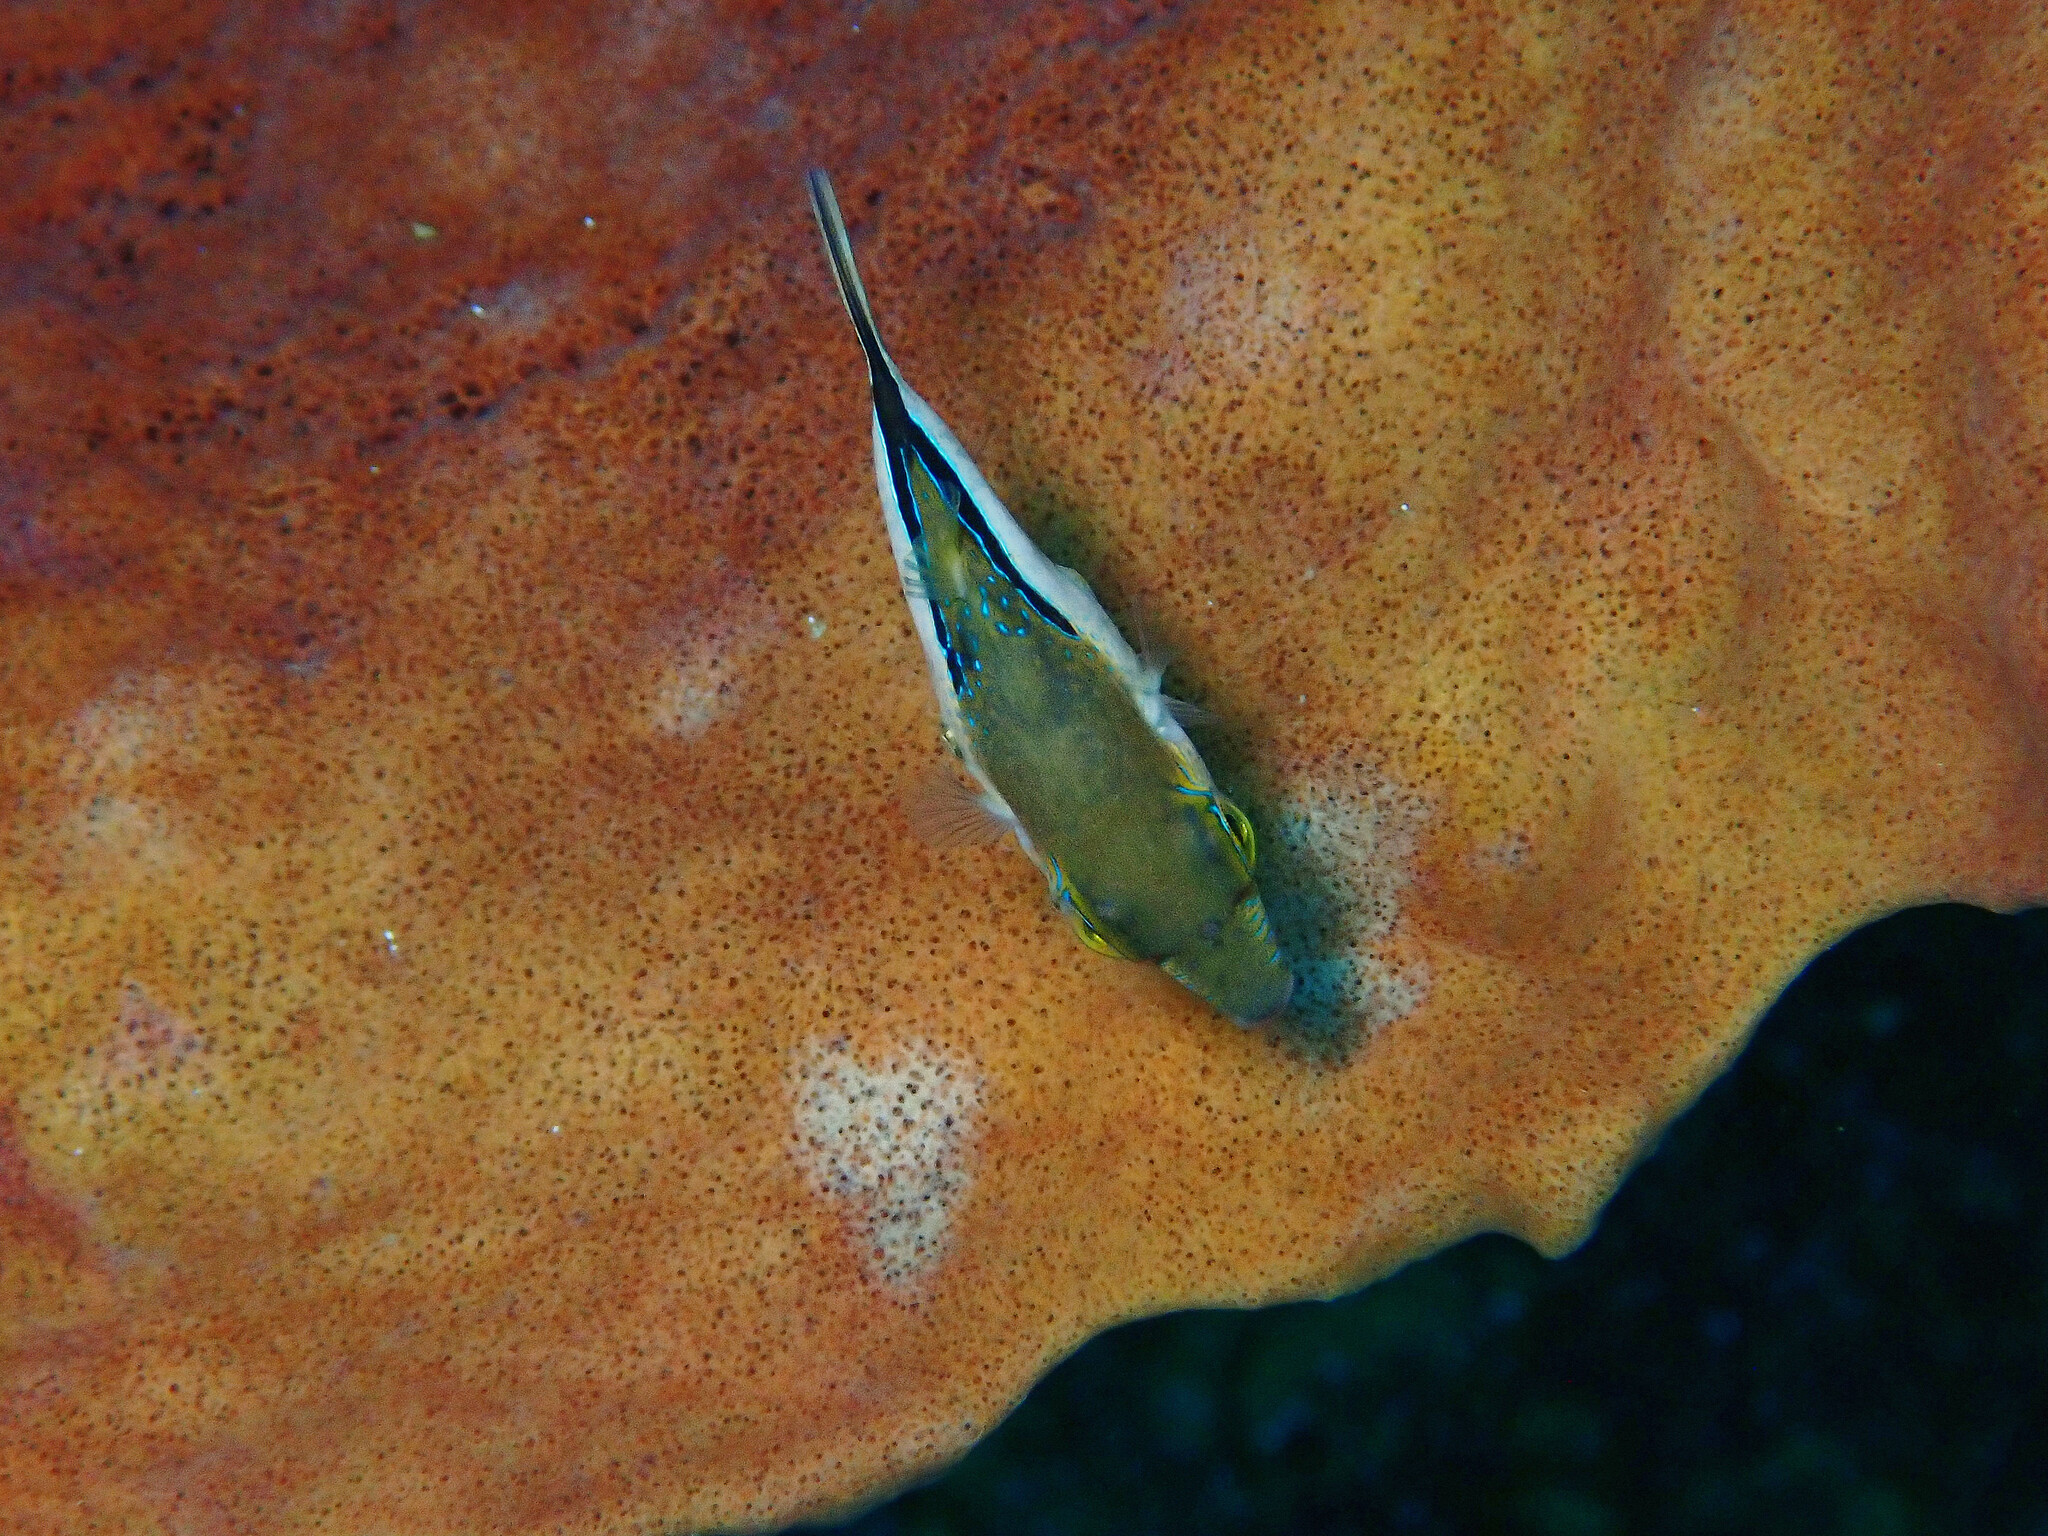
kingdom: Animalia
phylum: Chordata
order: Tetraodontiformes
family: Tetraodontidae
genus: Canthigaster
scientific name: Canthigaster rostrata
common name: Caribbean sharpnose-puffer
